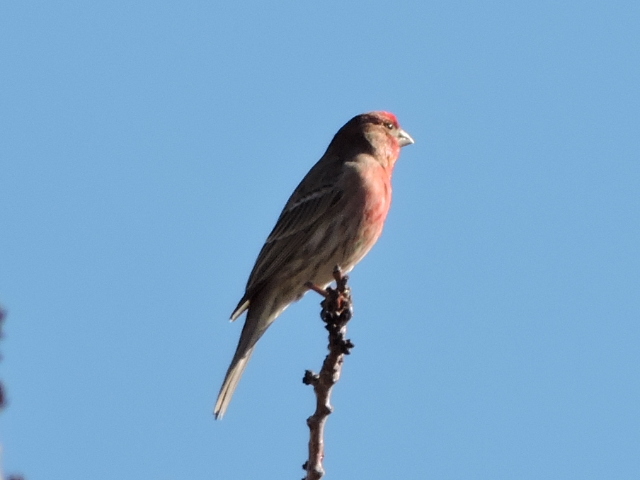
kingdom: Animalia
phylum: Chordata
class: Aves
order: Passeriformes
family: Fringillidae
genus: Haemorhous
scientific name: Haemorhous mexicanus
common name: House finch
